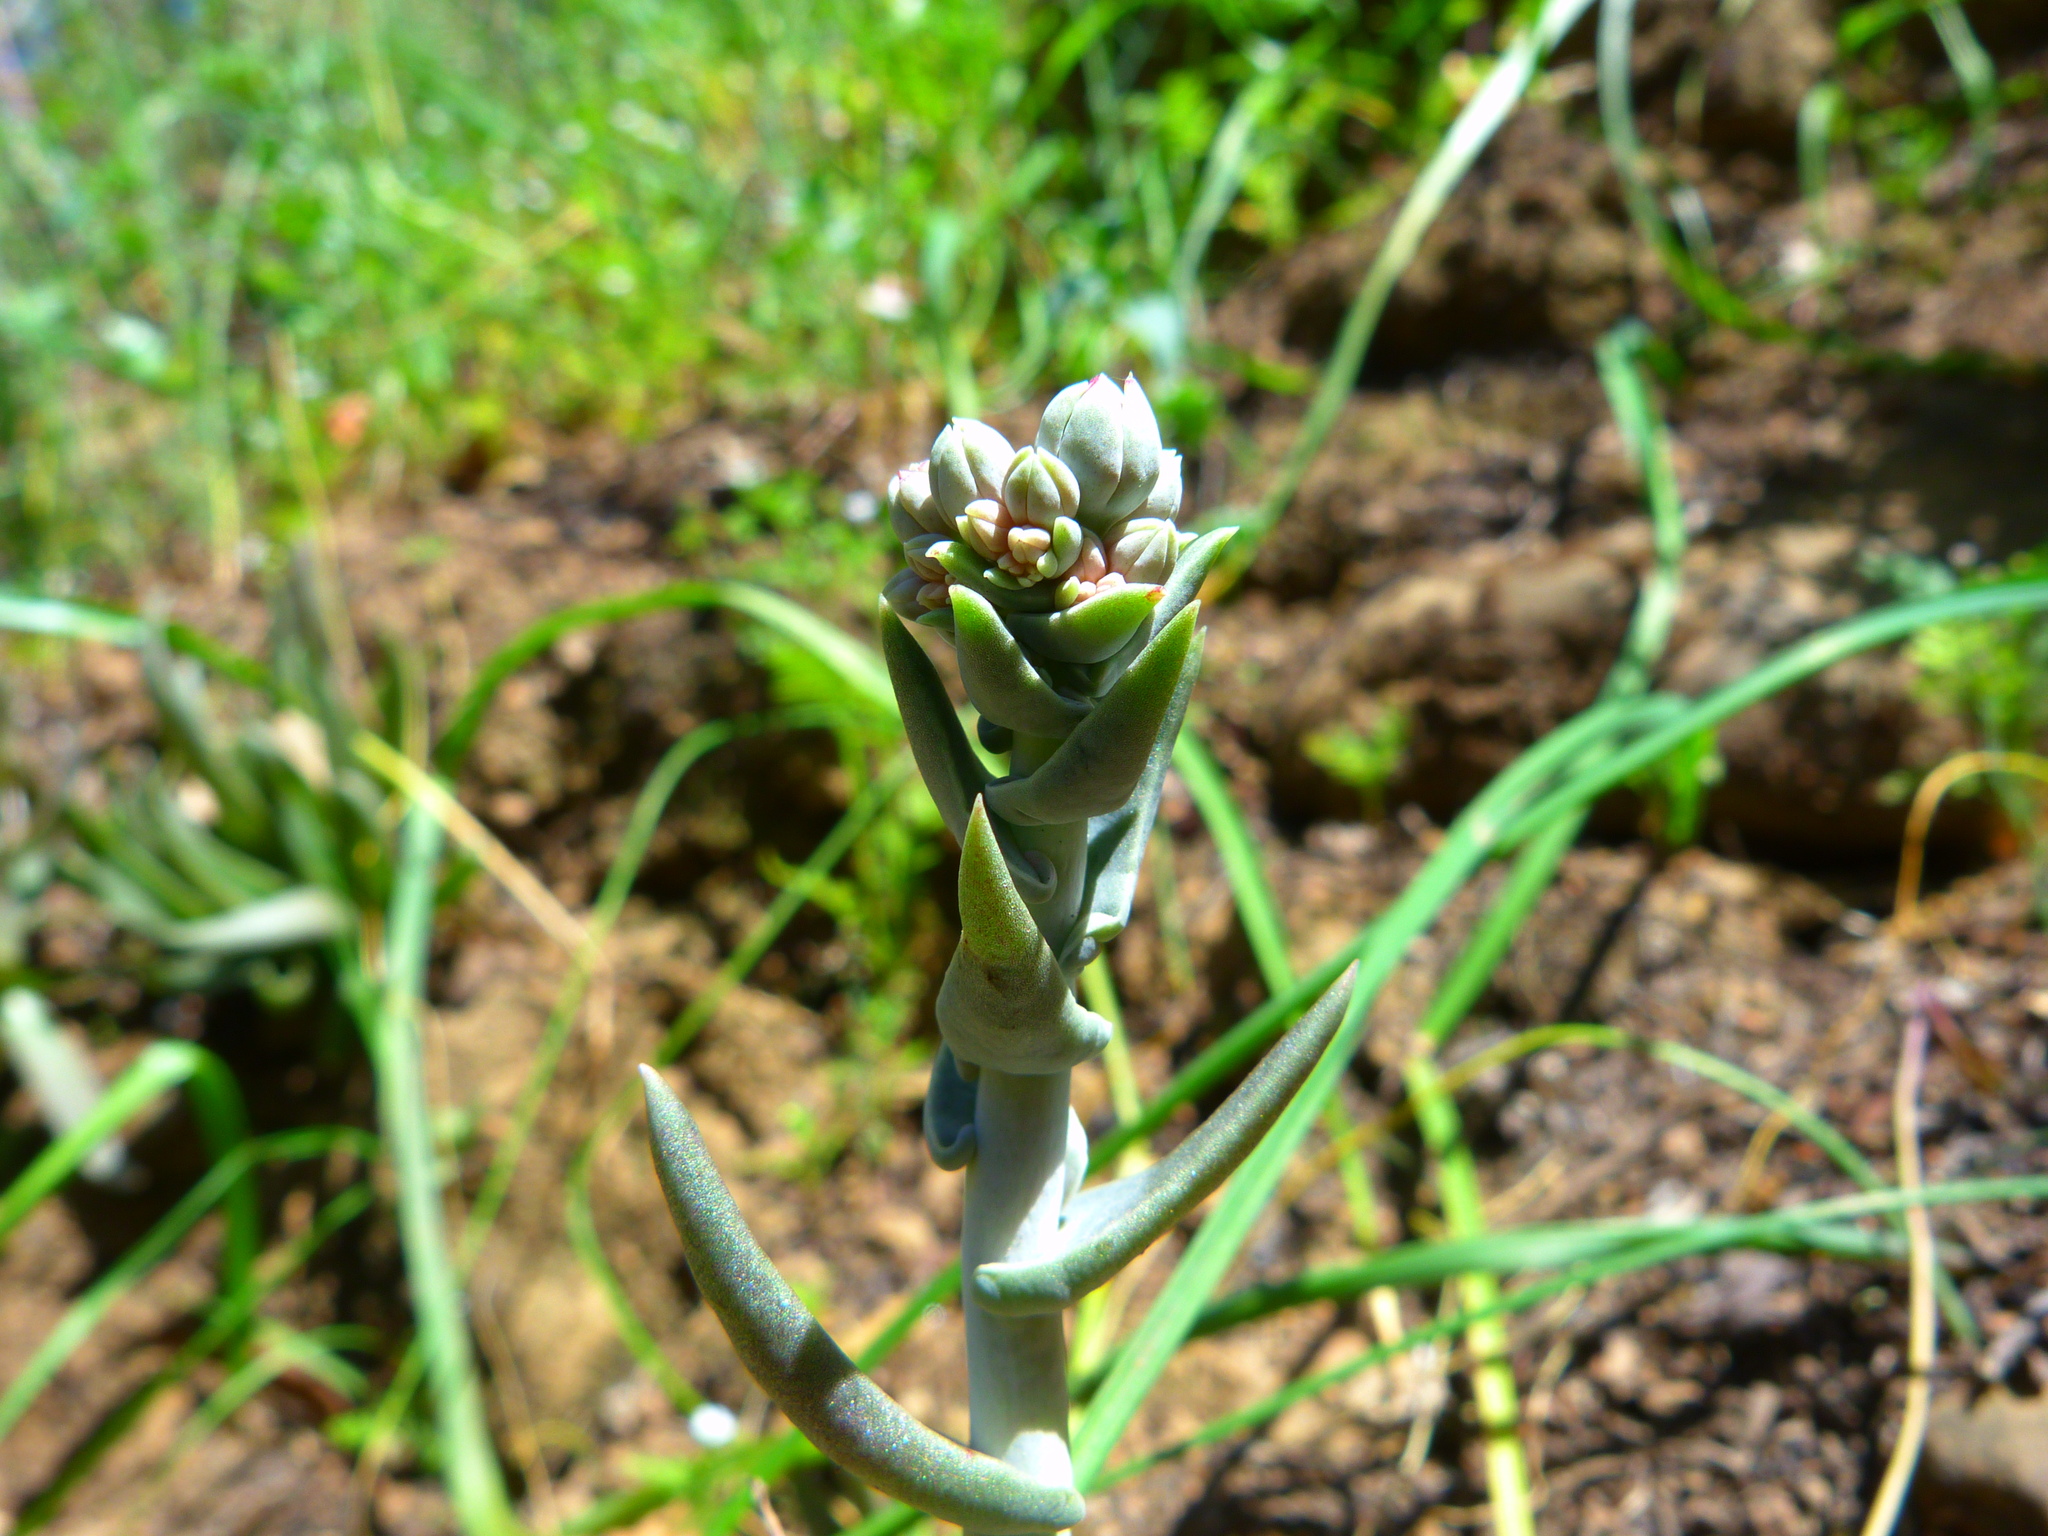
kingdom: Plantae
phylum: Tracheophyta
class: Magnoliopsida
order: Saxifragales
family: Crassulaceae
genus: Dudleya
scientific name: Dudleya lanceolata
